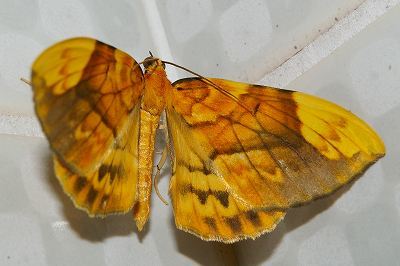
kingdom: Animalia
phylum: Arthropoda
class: Insecta
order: Lepidoptera
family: Geometridae
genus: Gandaritis
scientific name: Gandaritis fixseni
